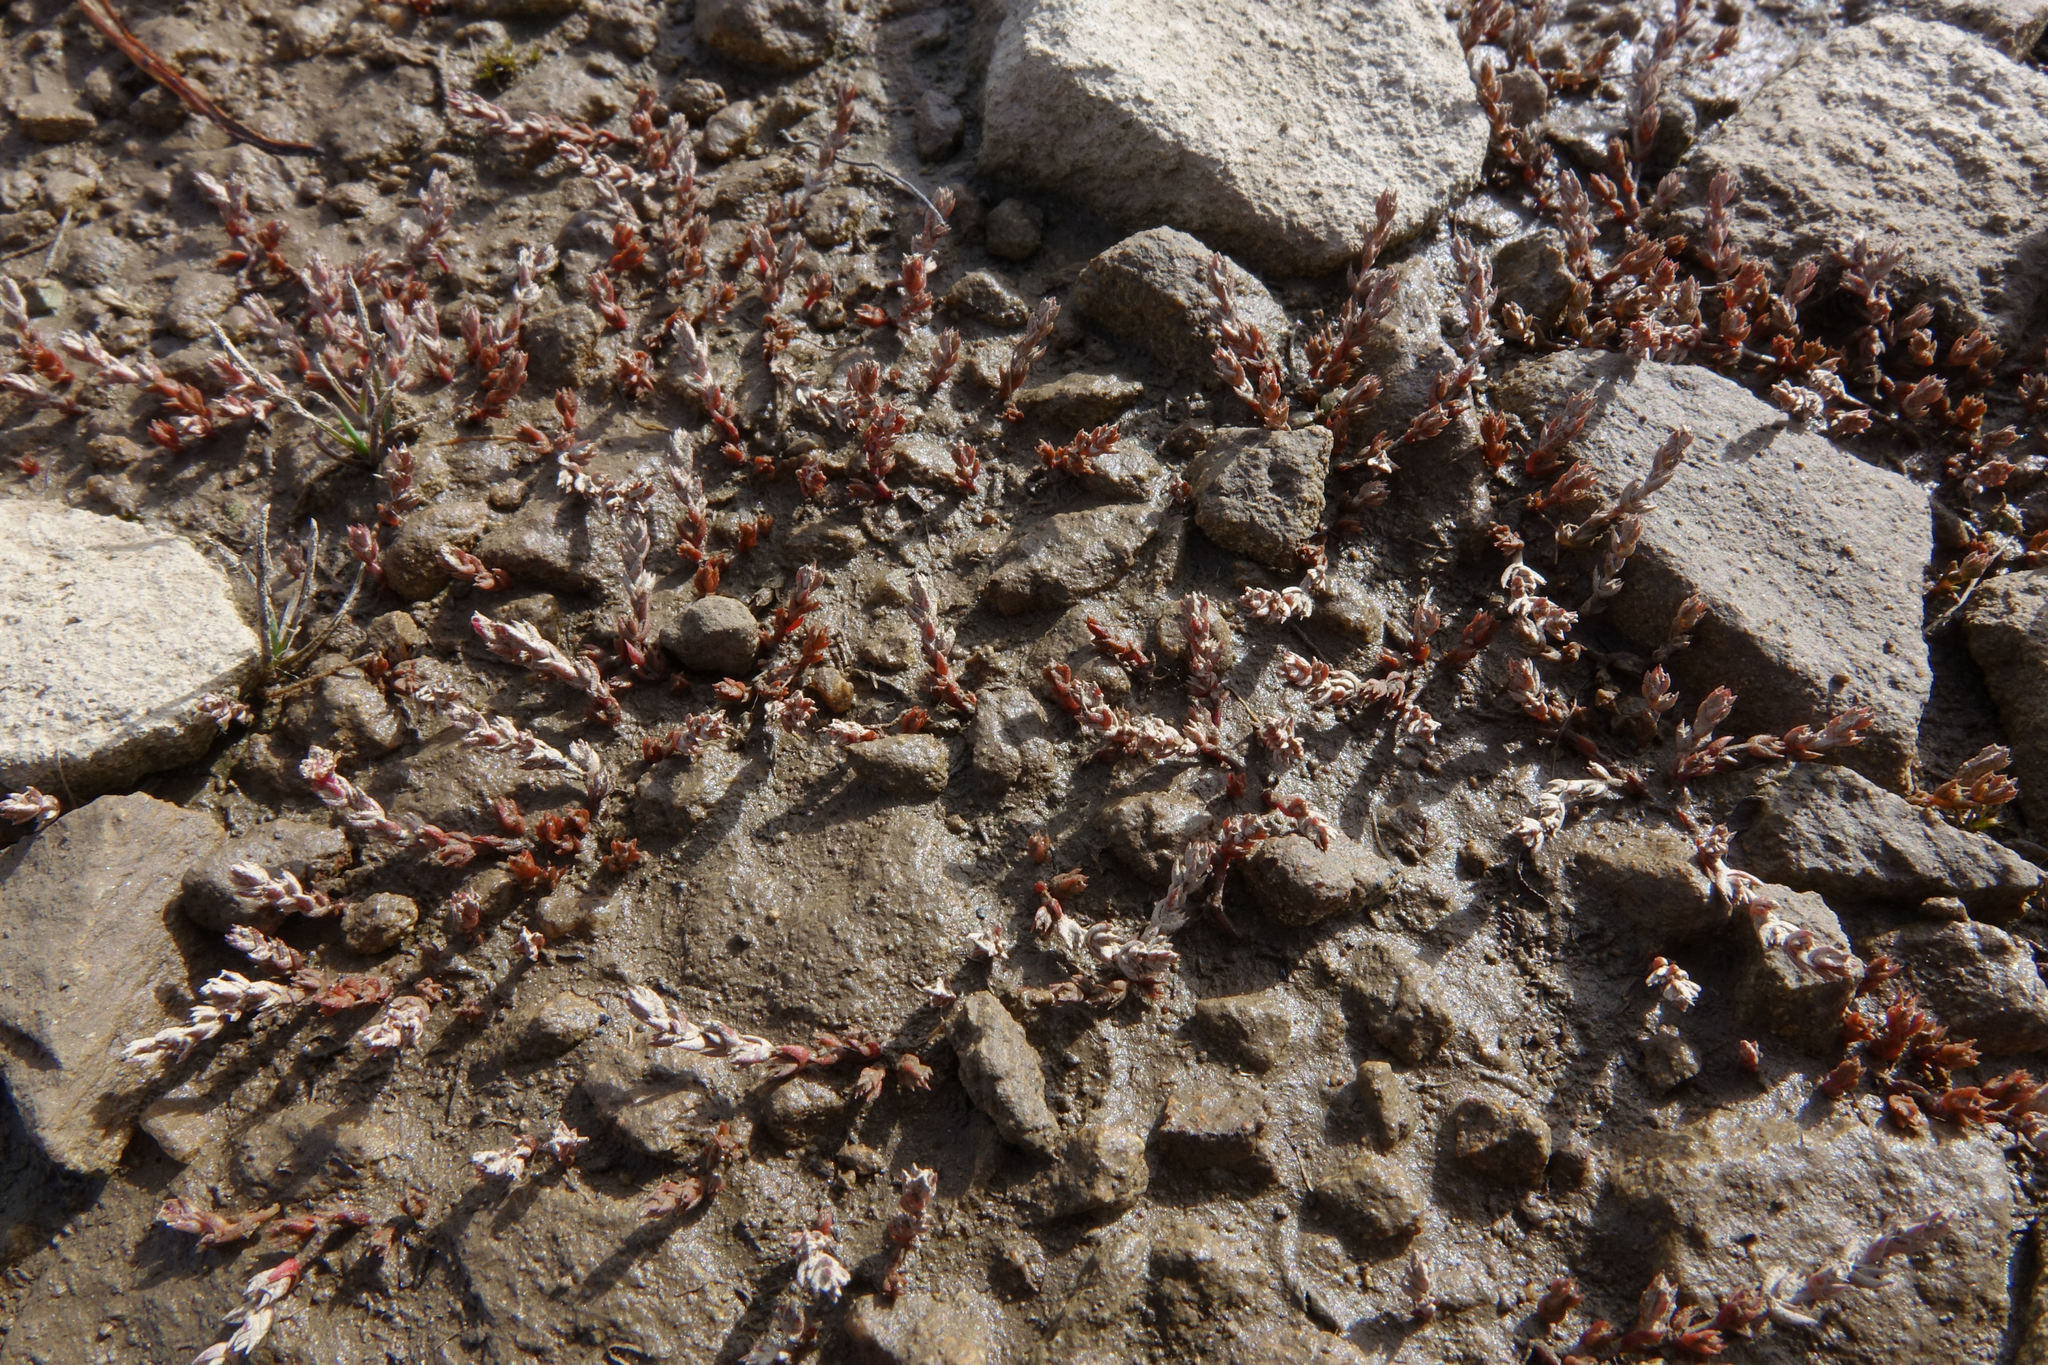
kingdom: Plantae
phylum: Tracheophyta
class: Magnoliopsida
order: Saxifragales
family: Crassulaceae
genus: Crassula
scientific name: Crassula multicaulis
